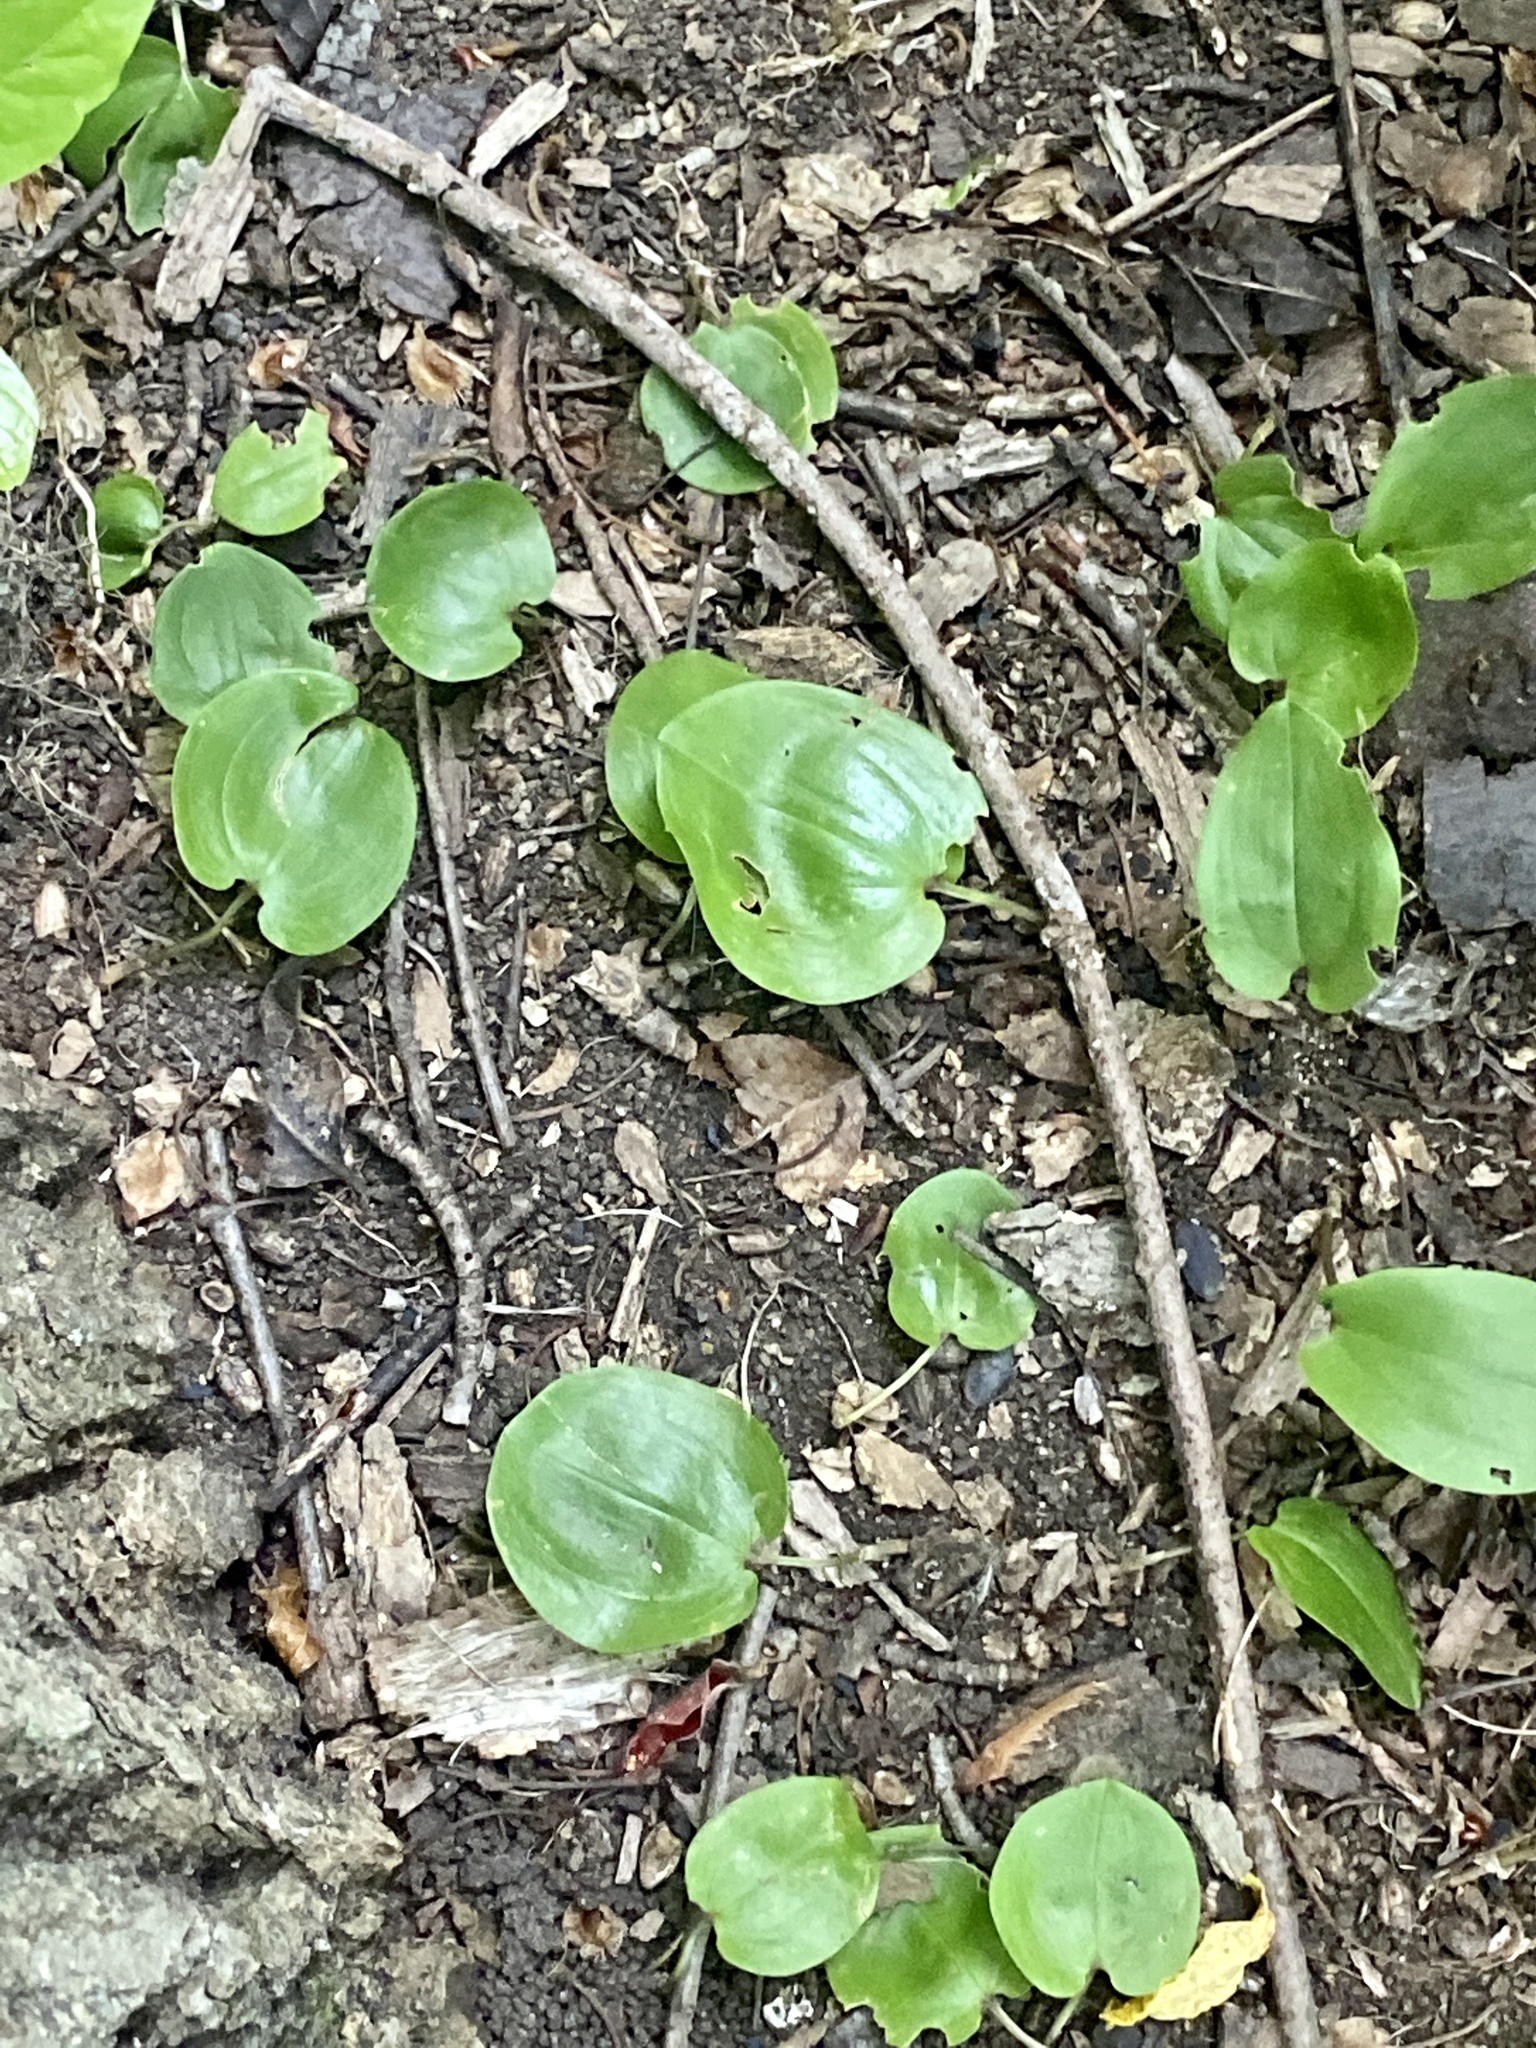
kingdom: Plantae
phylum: Tracheophyta
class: Liliopsida
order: Asparagales
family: Asparagaceae
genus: Maianthemum
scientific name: Maianthemum canadense
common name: False lily-of-the-valley
